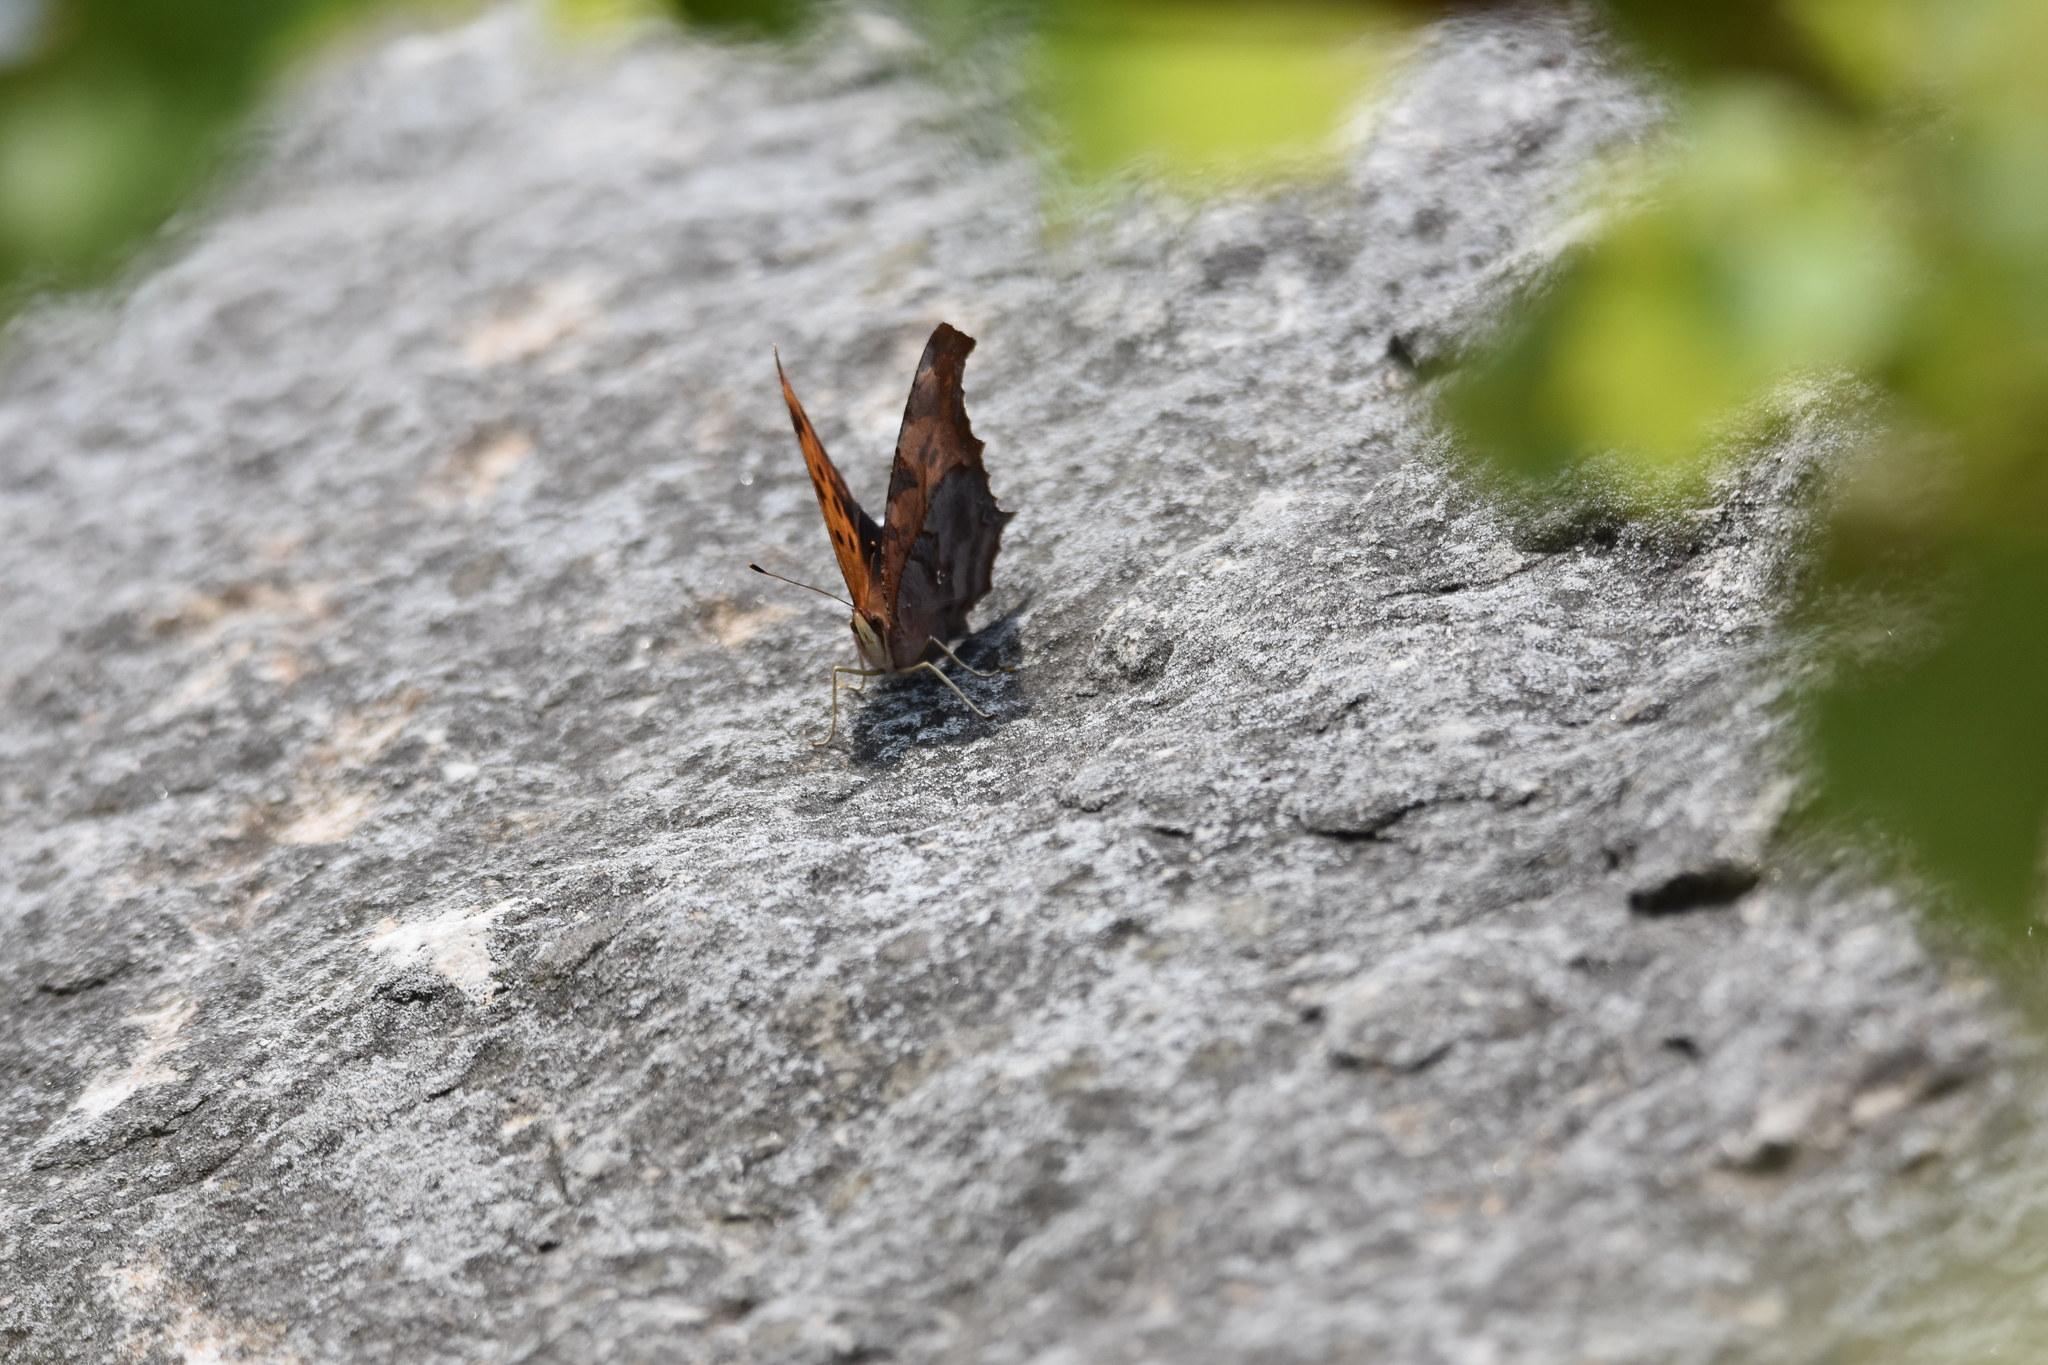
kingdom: Animalia
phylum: Arthropoda
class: Insecta
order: Lepidoptera
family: Nymphalidae
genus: Polygonia
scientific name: Polygonia interrogationis
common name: Question mark
